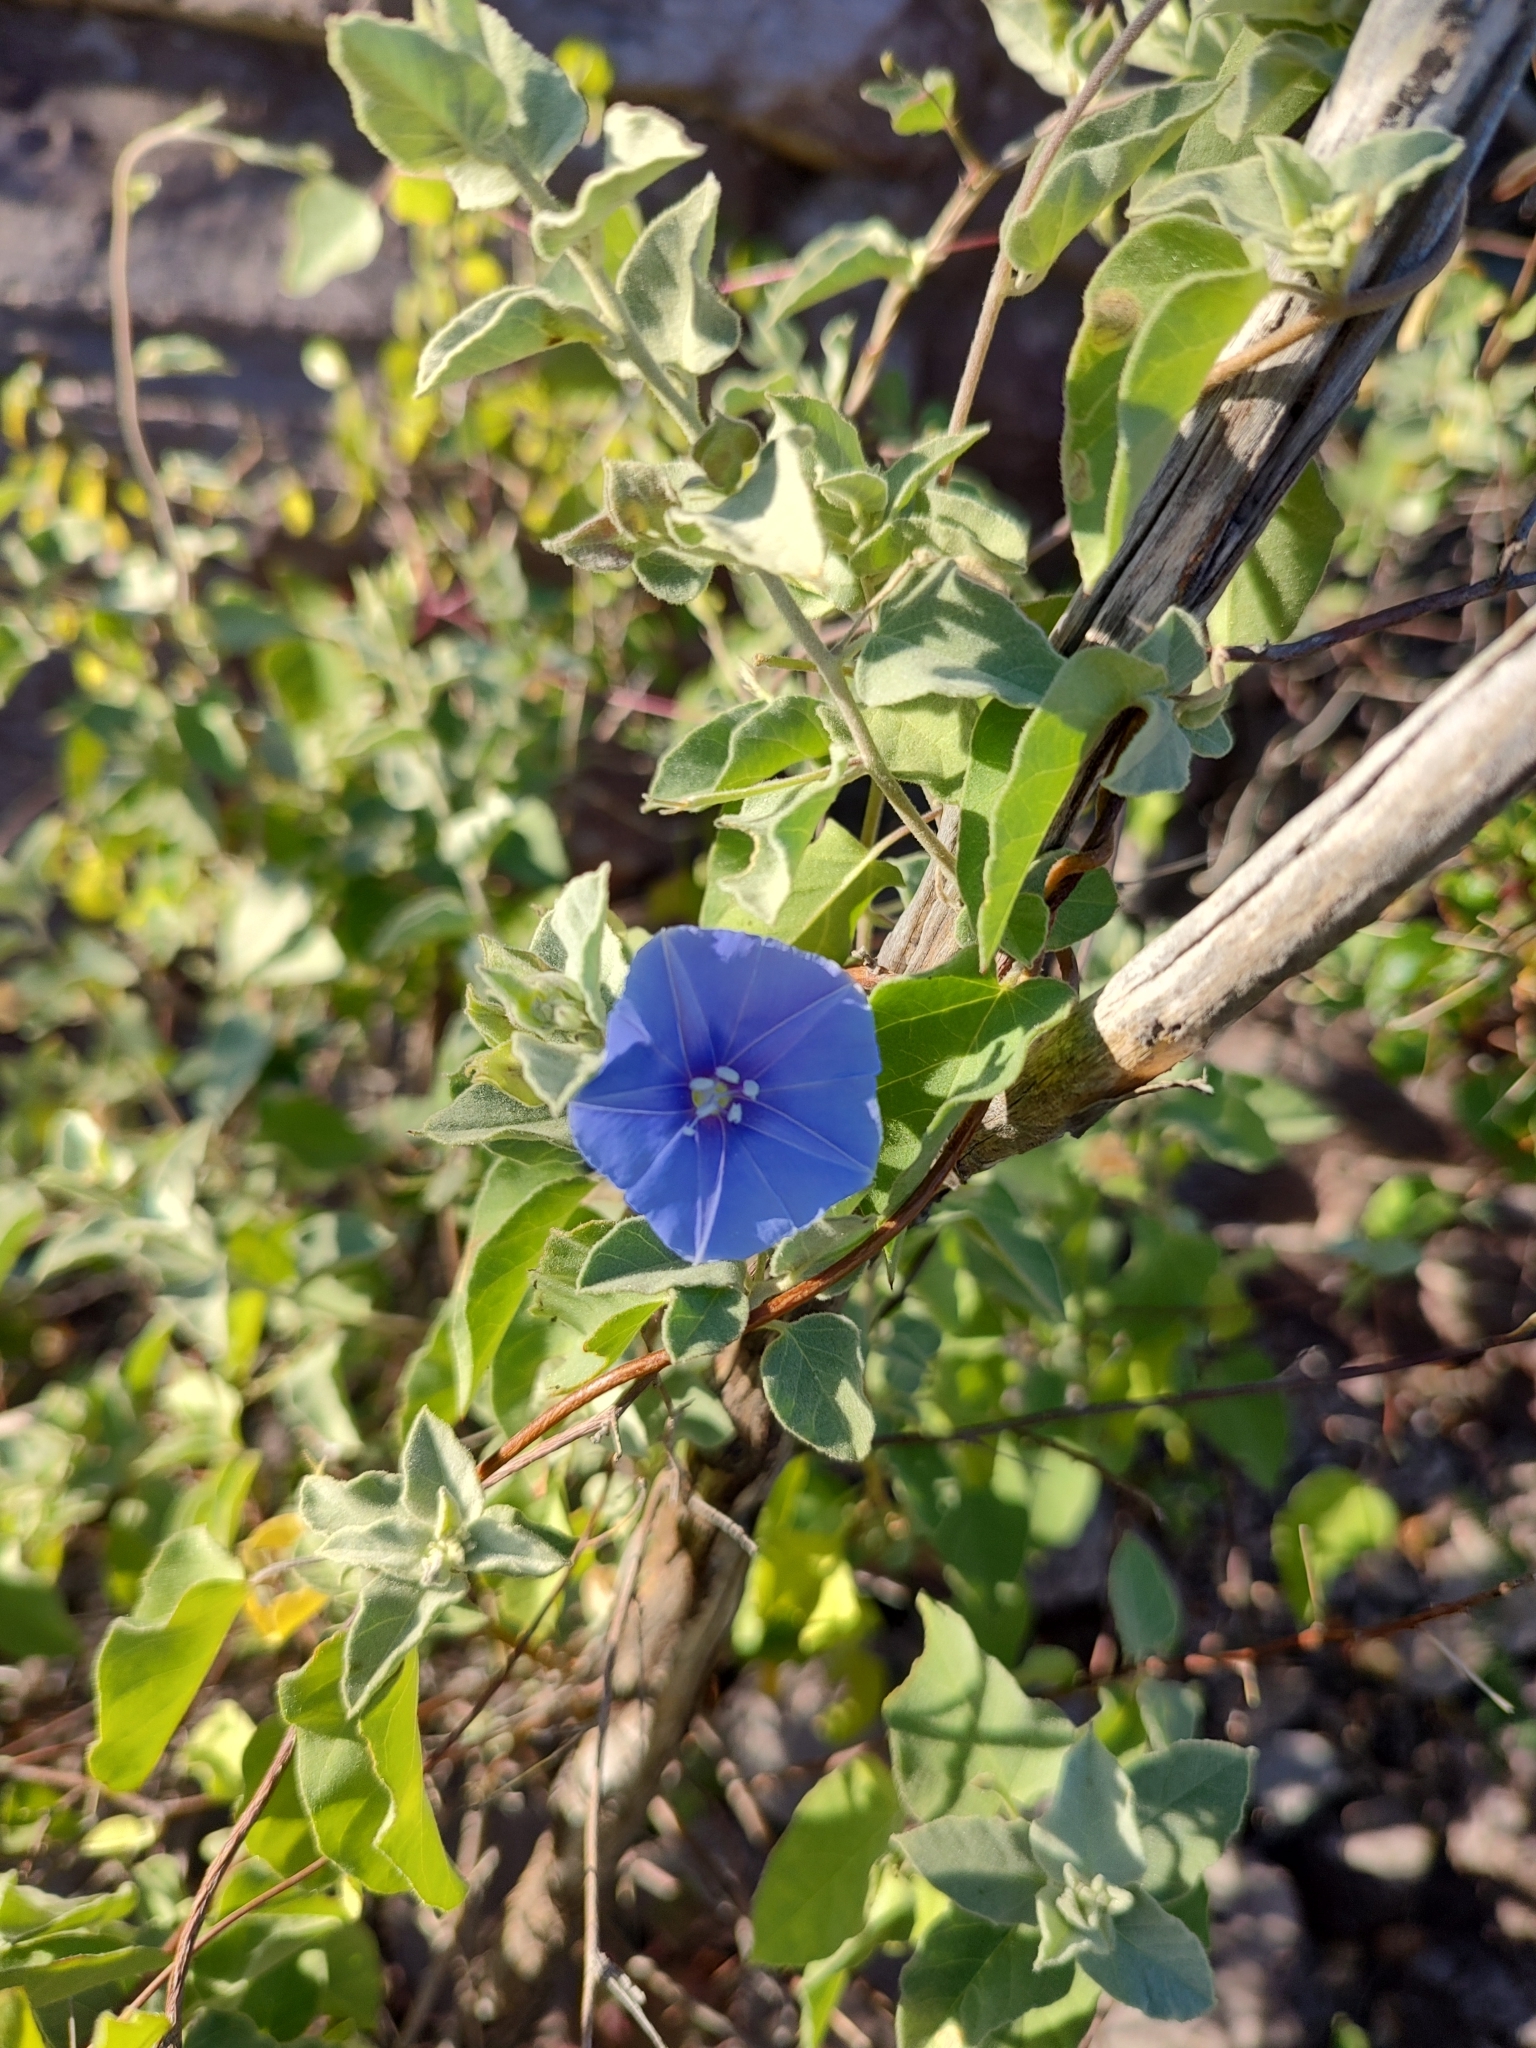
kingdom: Plantae
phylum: Tracheophyta
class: Magnoliopsida
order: Solanales
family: Convolvulaceae
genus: Jacquemontia
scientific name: Jacquemontia abutiloides
